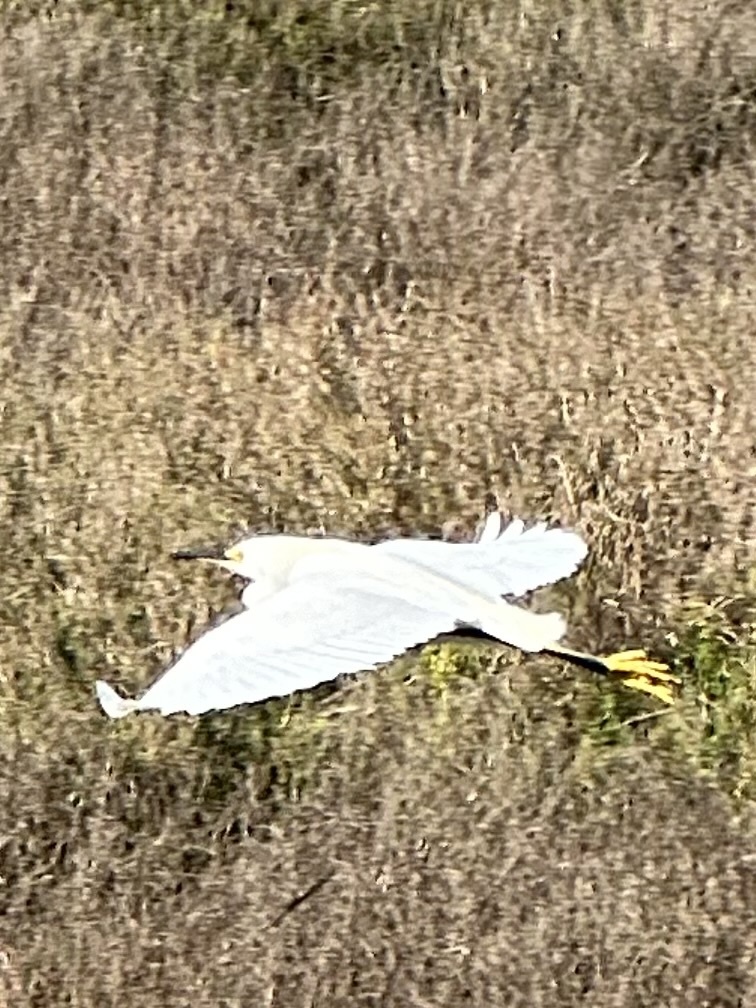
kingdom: Animalia
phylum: Chordata
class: Aves
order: Pelecaniformes
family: Ardeidae
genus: Egretta
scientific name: Egretta thula
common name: Snowy egret
